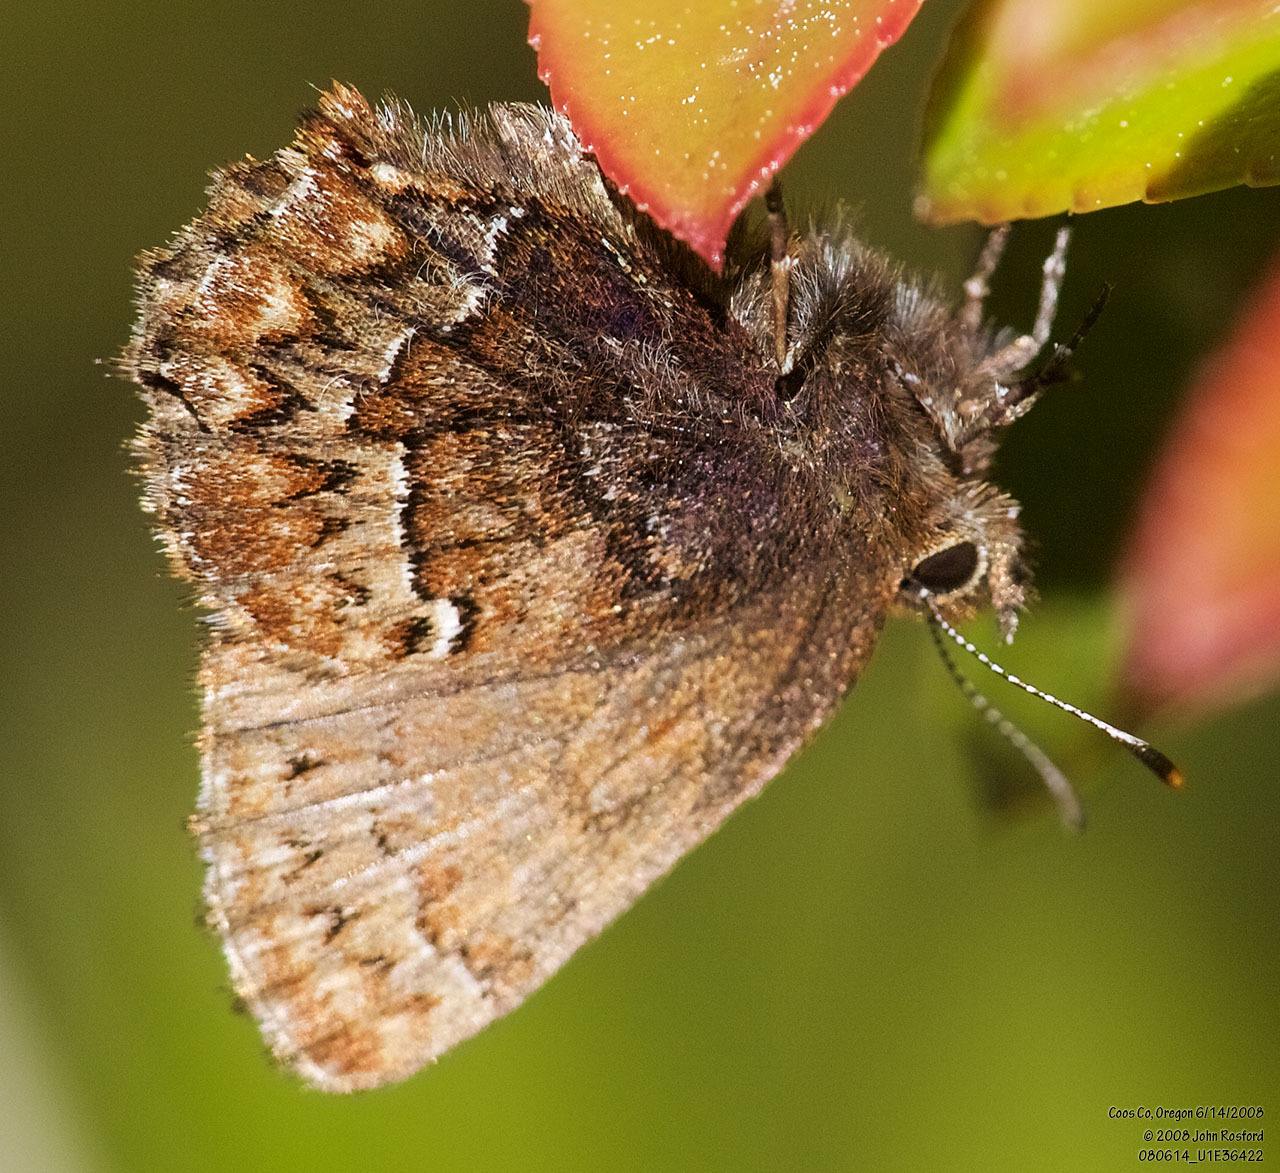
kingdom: Animalia
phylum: Arthropoda
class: Insecta
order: Lepidoptera
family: Lycaenidae
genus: Incisalia
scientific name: Incisalia eryphon
